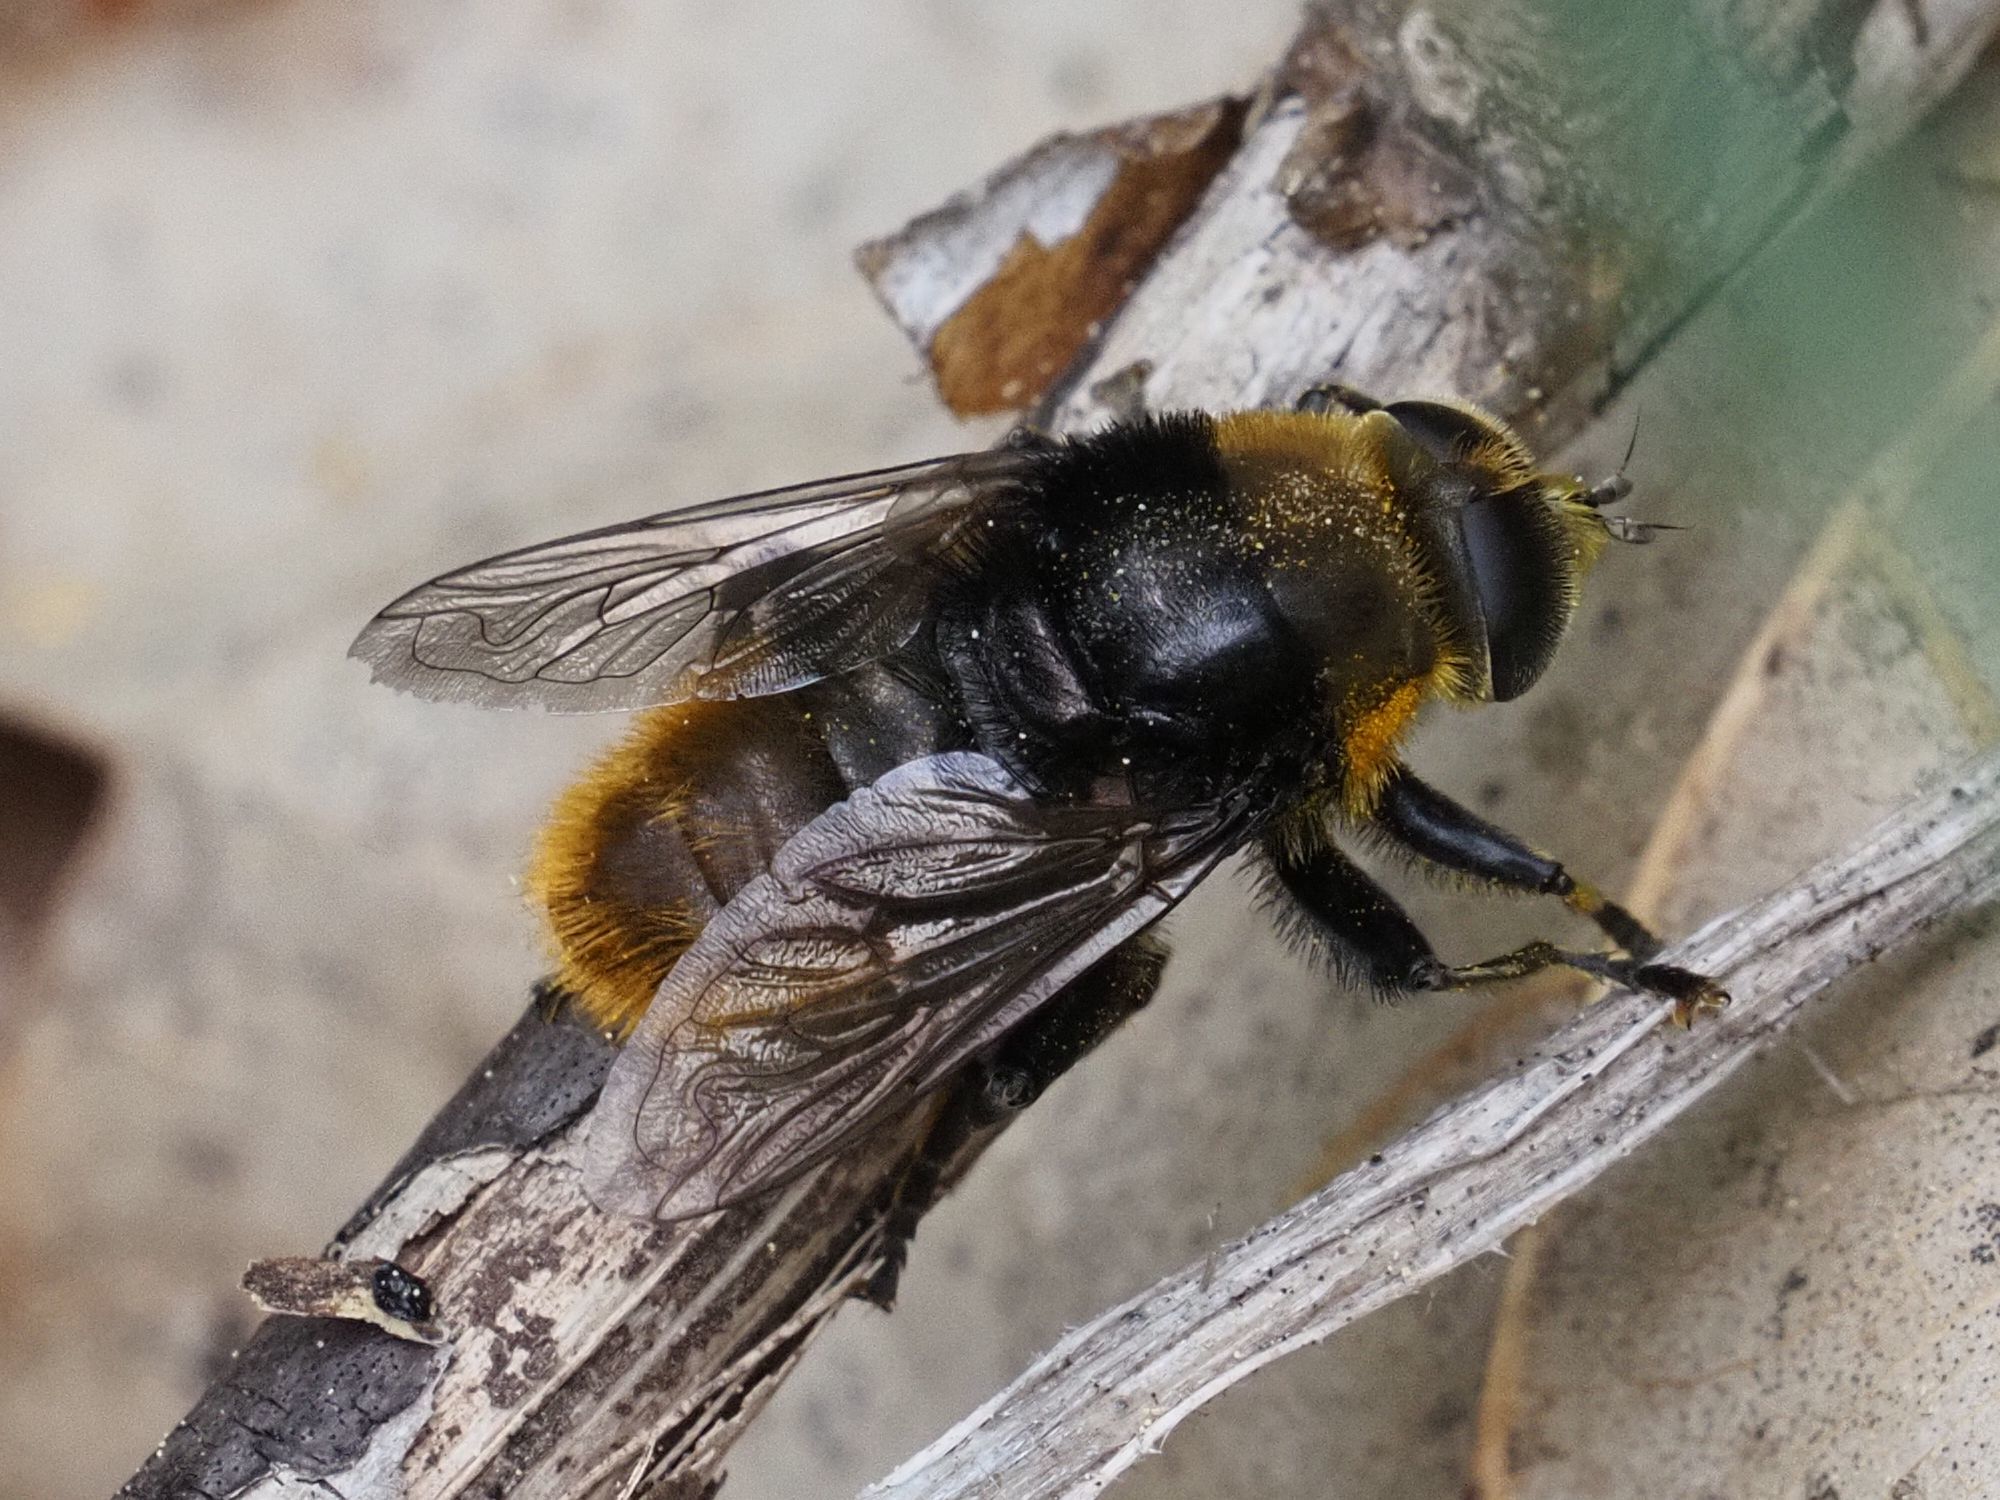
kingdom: Animalia
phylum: Arthropoda
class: Insecta
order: Diptera
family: Syrphidae
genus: Merodon
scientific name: Merodon equestris
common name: Greater bulb-fly
